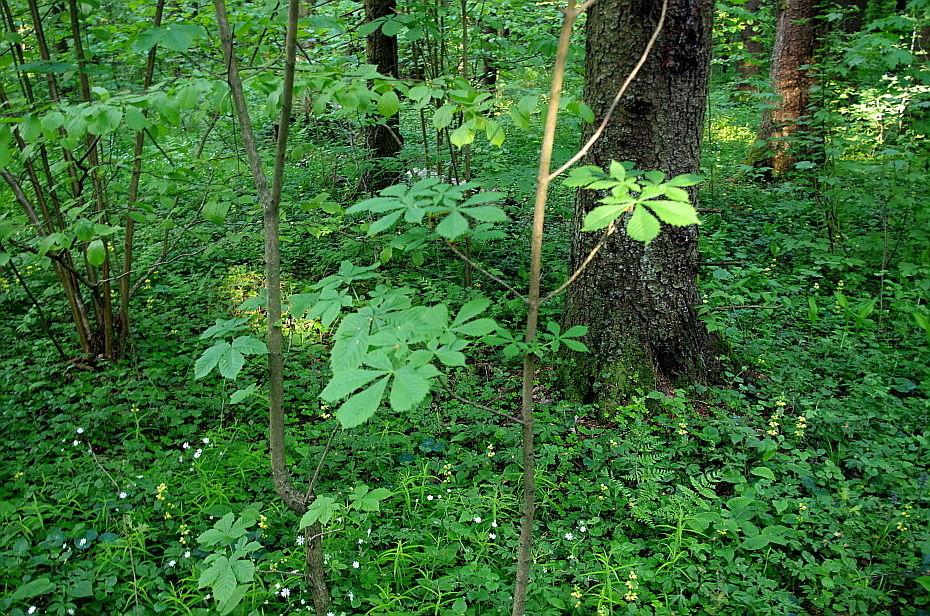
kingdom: Plantae
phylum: Tracheophyta
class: Magnoliopsida
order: Sapindales
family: Sapindaceae
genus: Aesculus
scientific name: Aesculus hippocastanum
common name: Horse-chestnut
